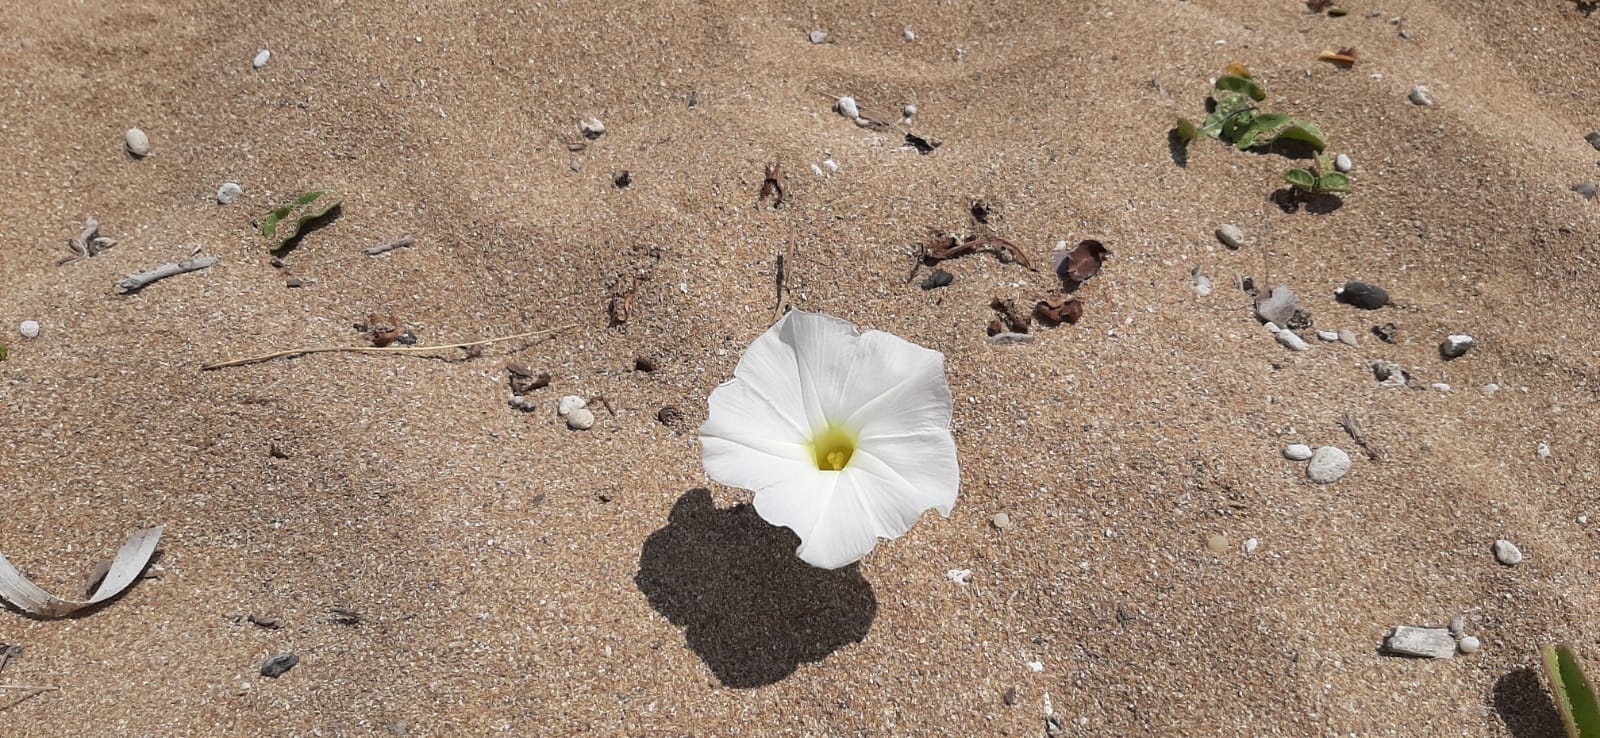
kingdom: Plantae
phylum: Tracheophyta
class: Magnoliopsida
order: Solanales
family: Convolvulaceae
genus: Ipomoea
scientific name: Ipomoea imperati
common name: Fiddle-leaf morning-glory
